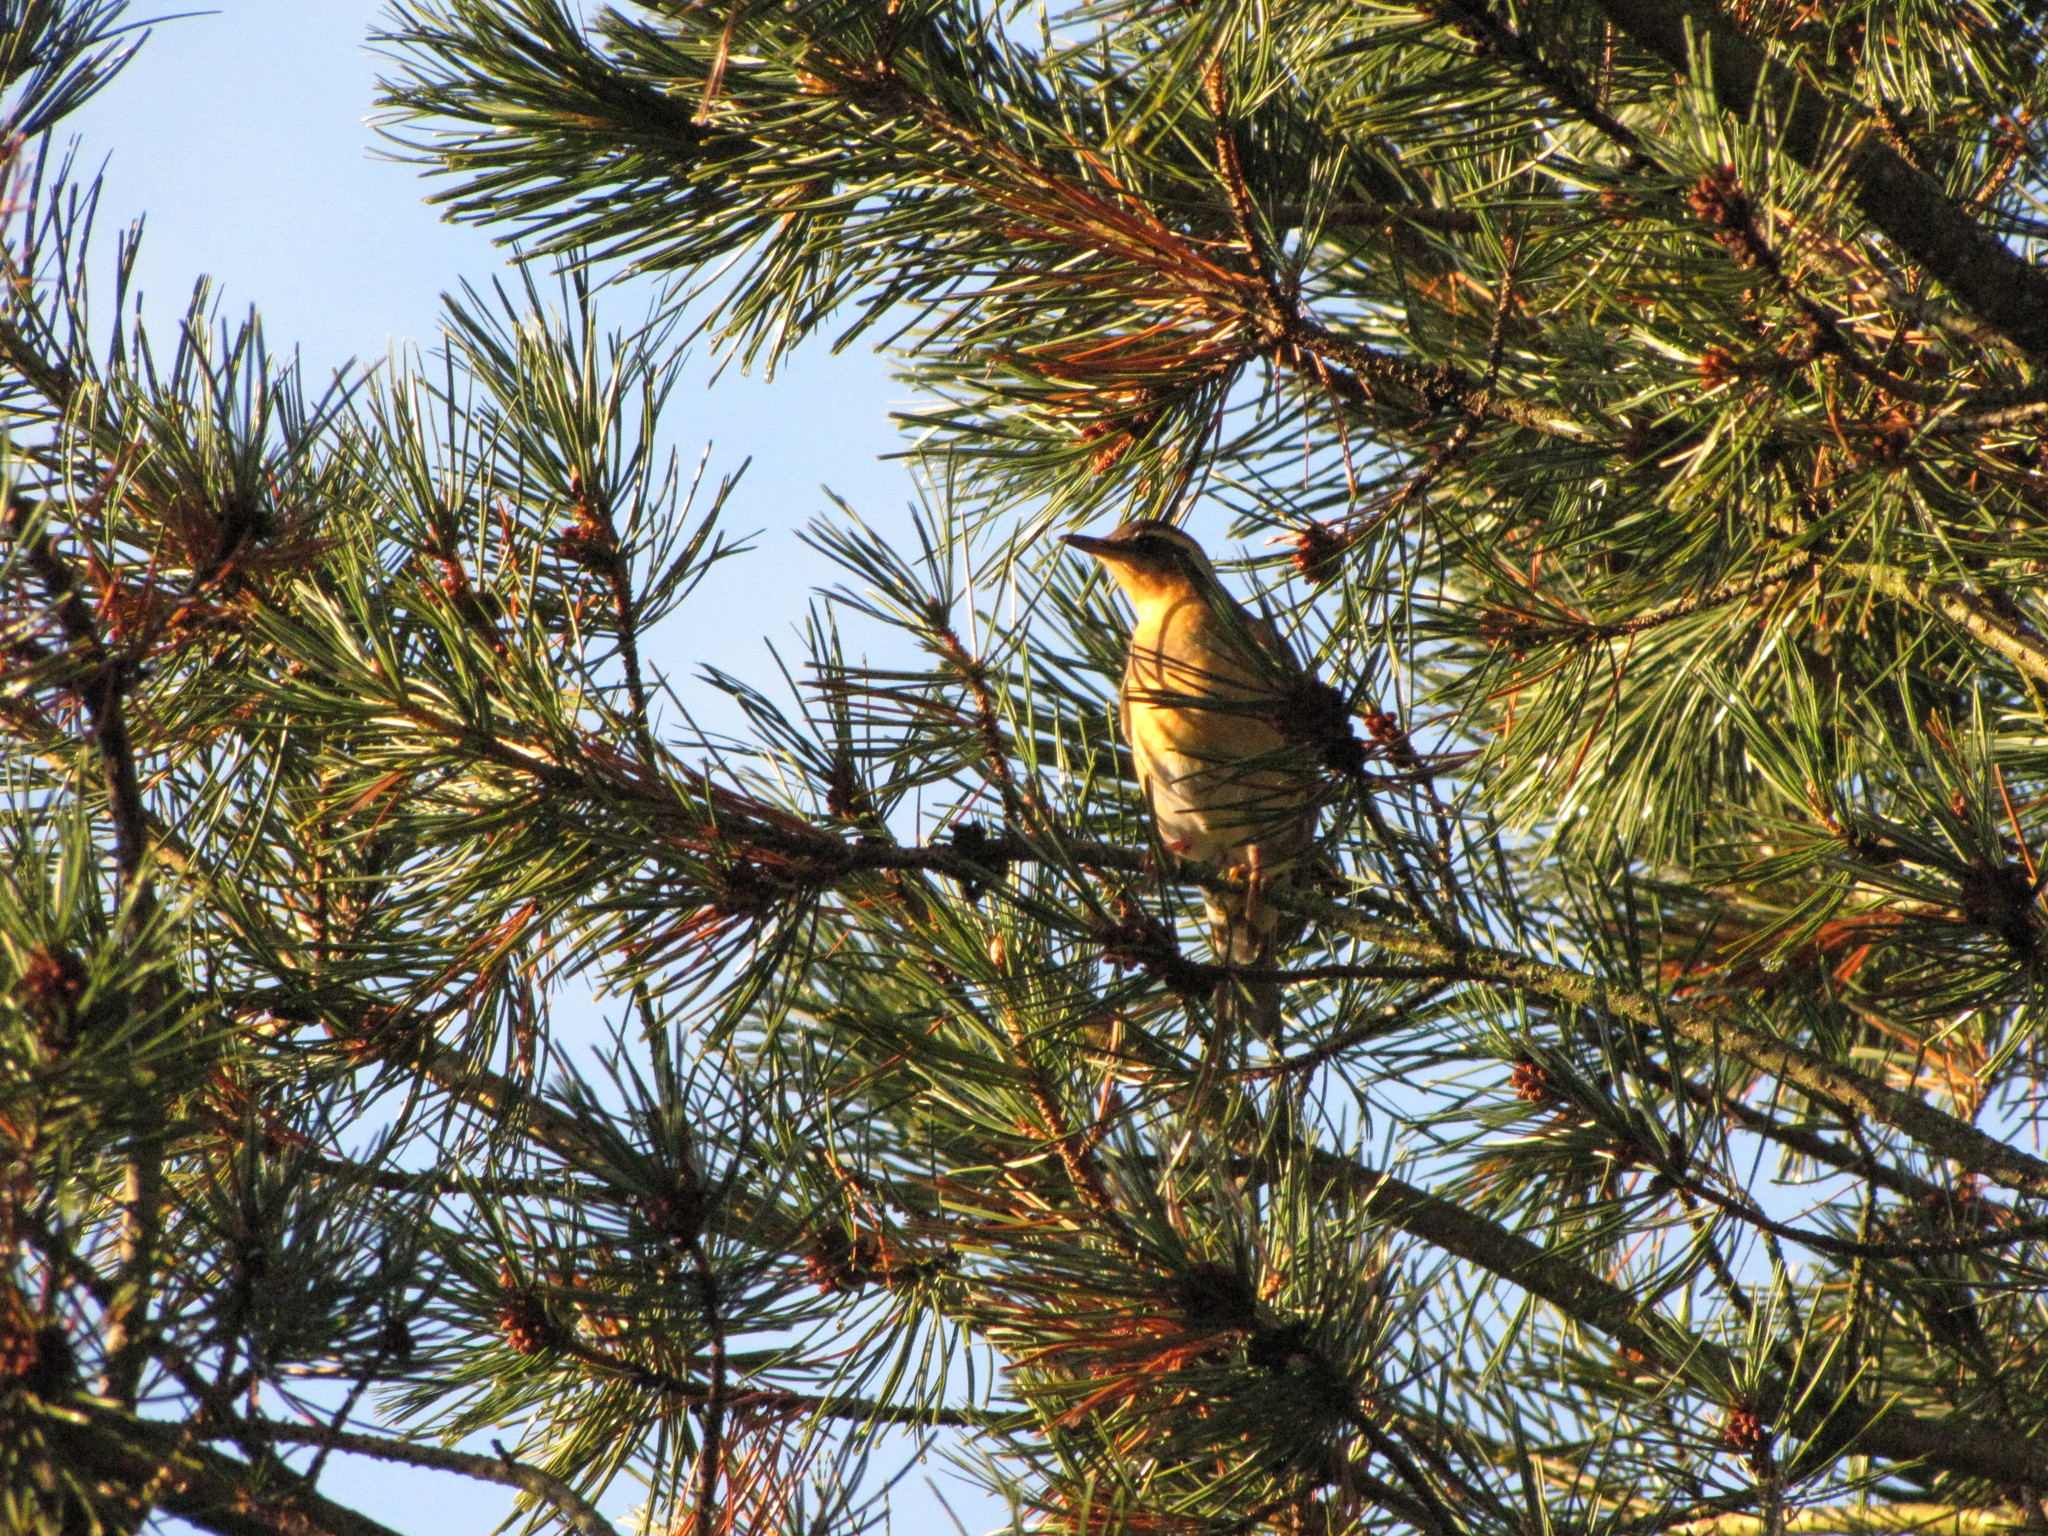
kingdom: Animalia
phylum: Chordata
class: Aves
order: Passeriformes
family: Turdidae
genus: Ixoreus
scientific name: Ixoreus naevius
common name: Varied thrush
